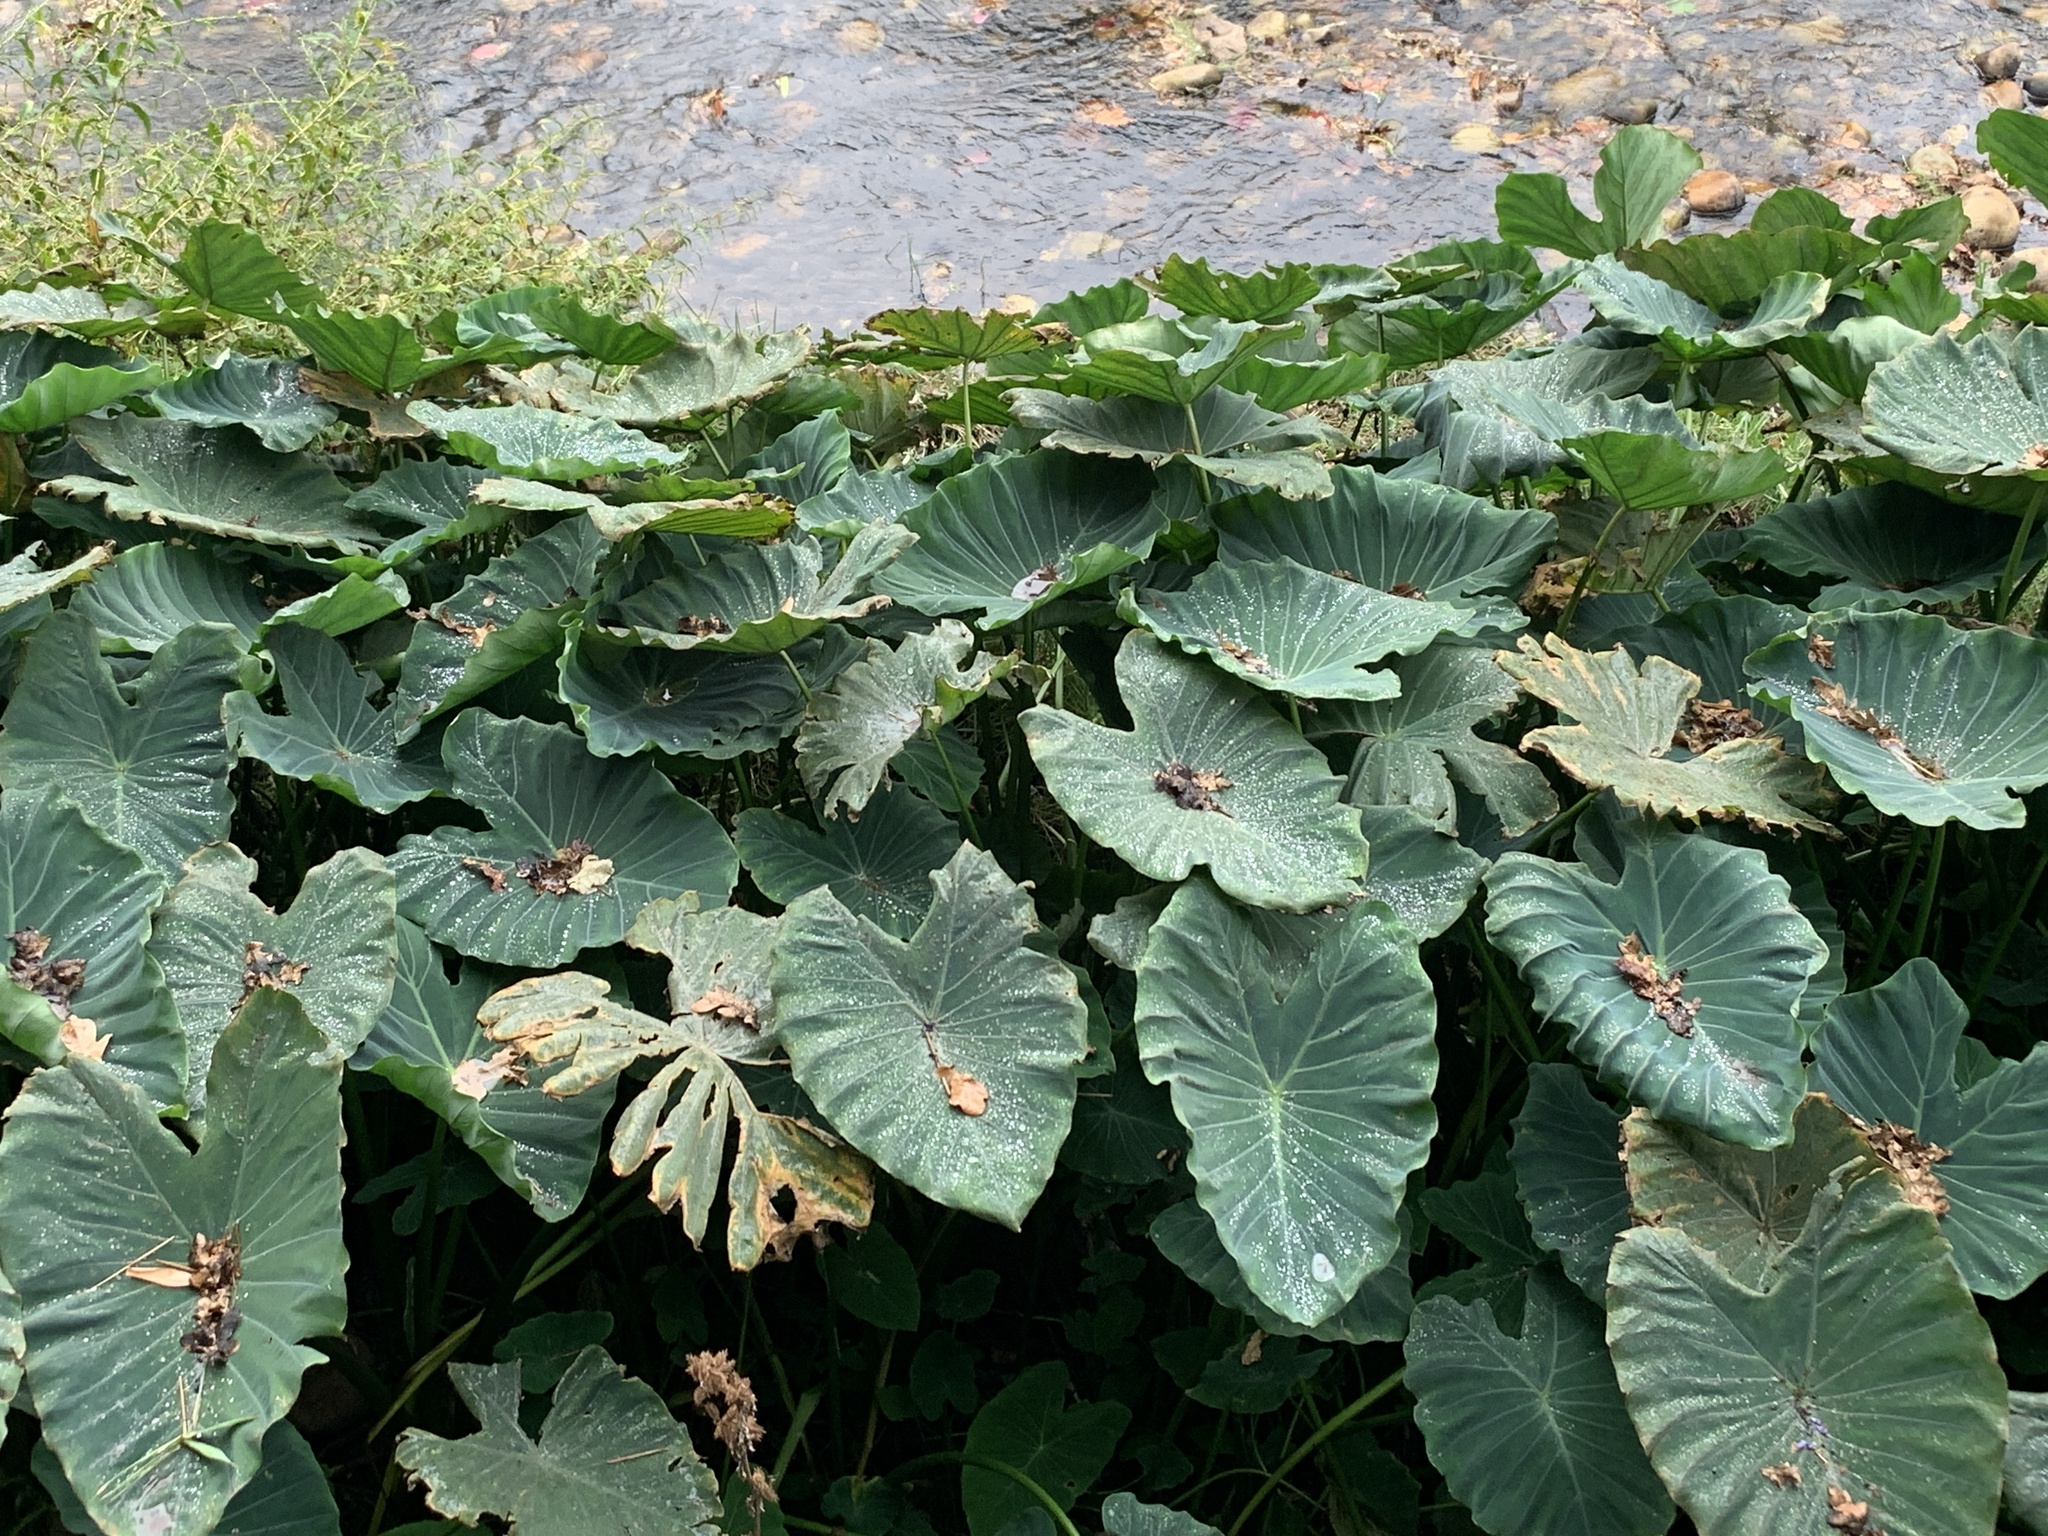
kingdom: Plantae
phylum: Tracheophyta
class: Liliopsida
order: Alismatales
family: Araceae
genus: Colocasia
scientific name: Colocasia esculenta
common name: Taro
